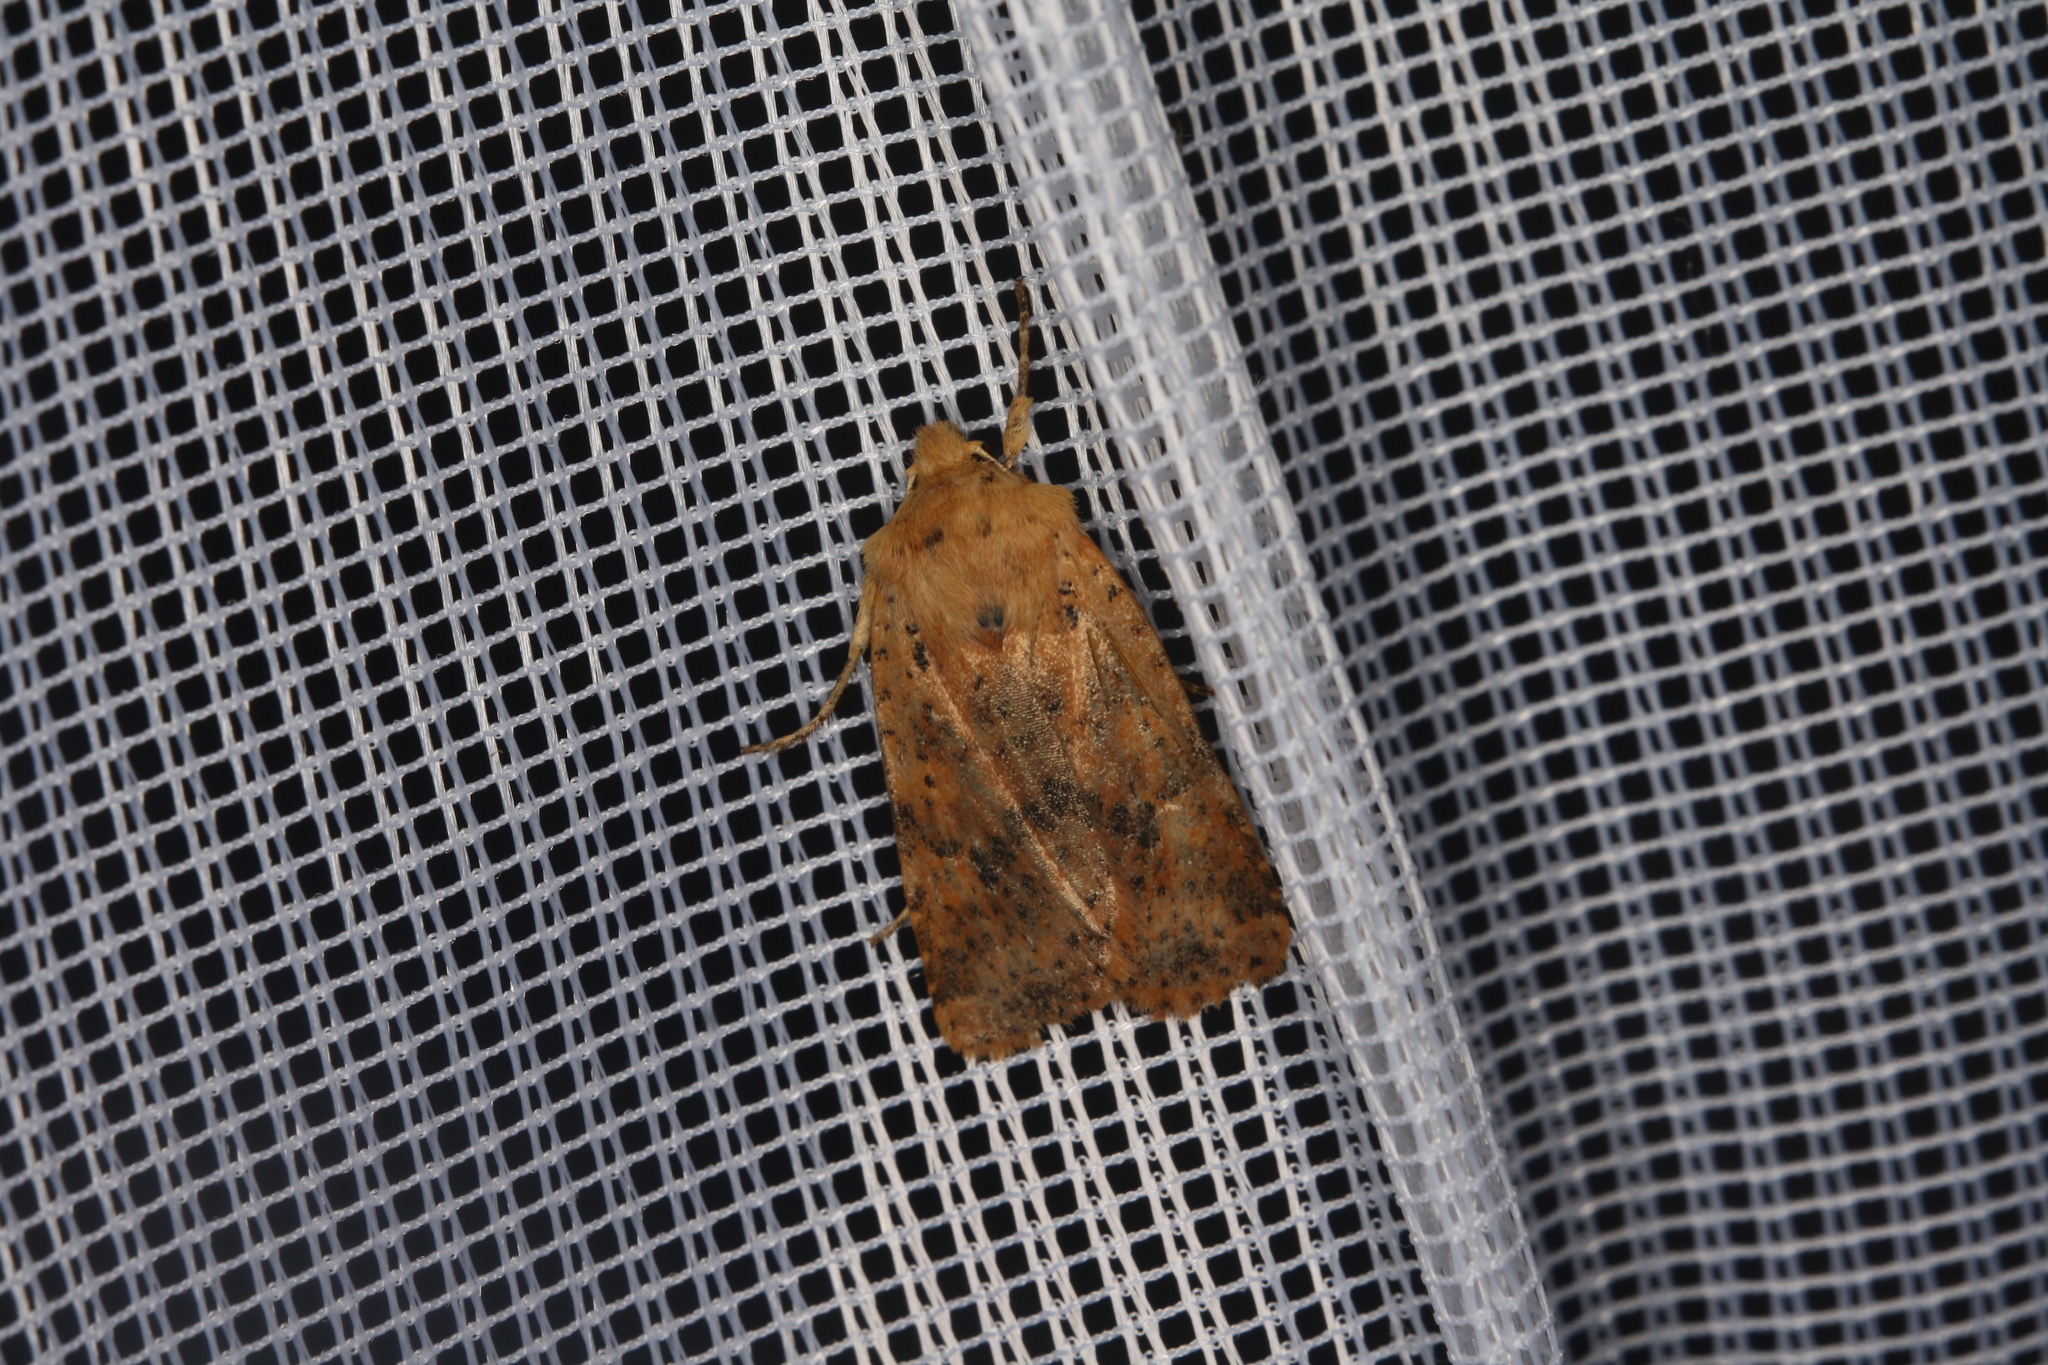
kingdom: Animalia
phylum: Arthropoda
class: Insecta
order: Lepidoptera
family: Noctuidae
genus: Conistra
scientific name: Conistra rubiginea
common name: Dotted chestnut
